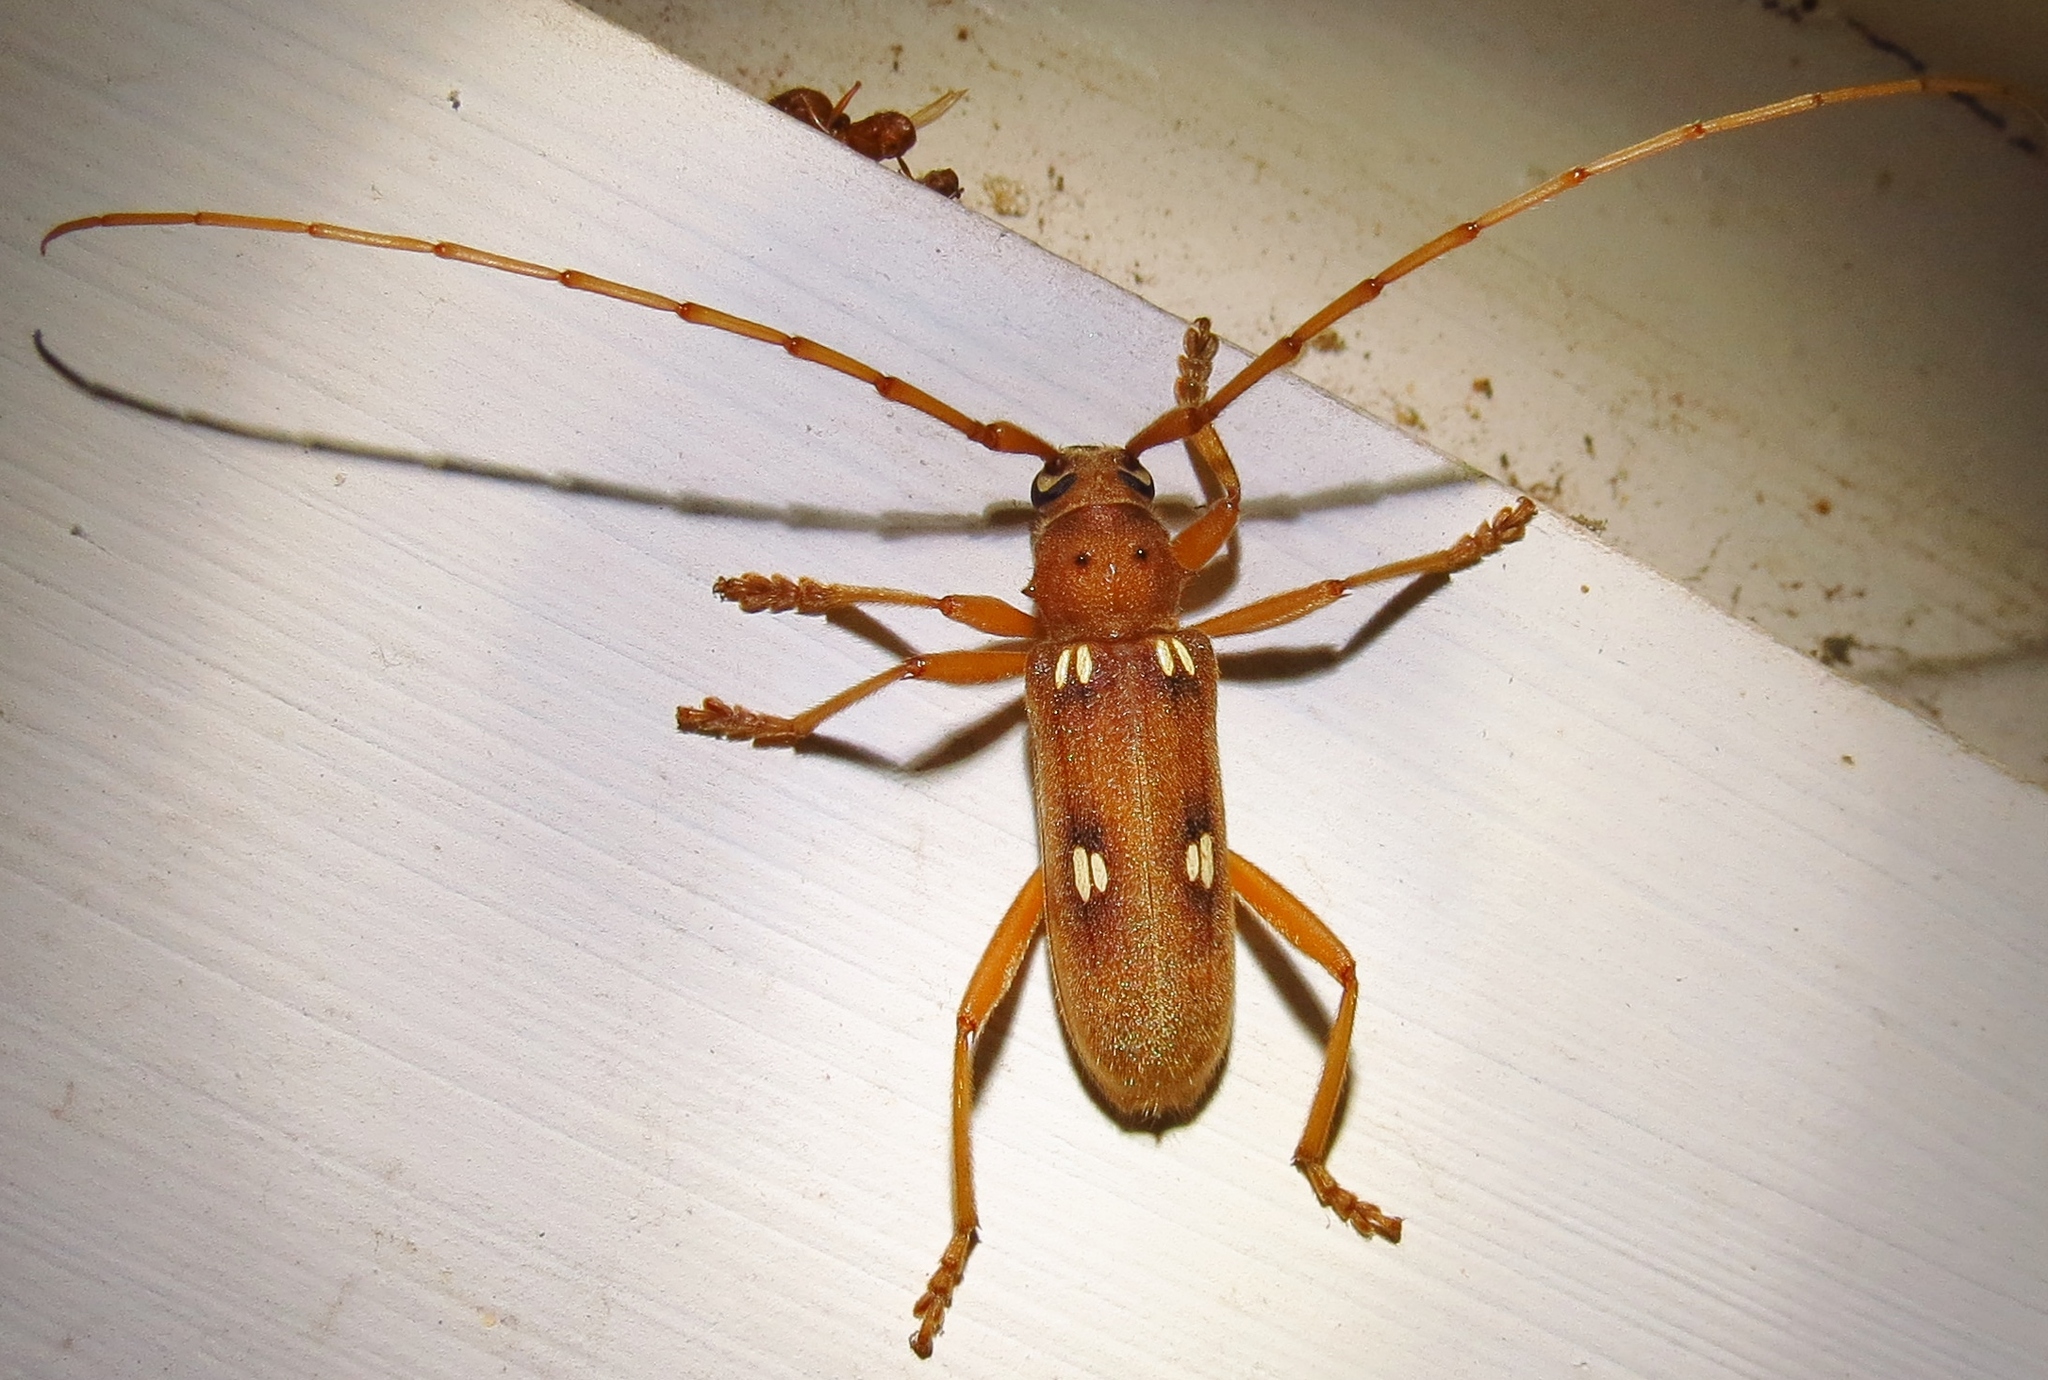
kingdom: Animalia
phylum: Arthropoda
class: Insecta
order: Coleoptera
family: Cerambycidae
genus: Eburia
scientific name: Eburia quadrigeminata
